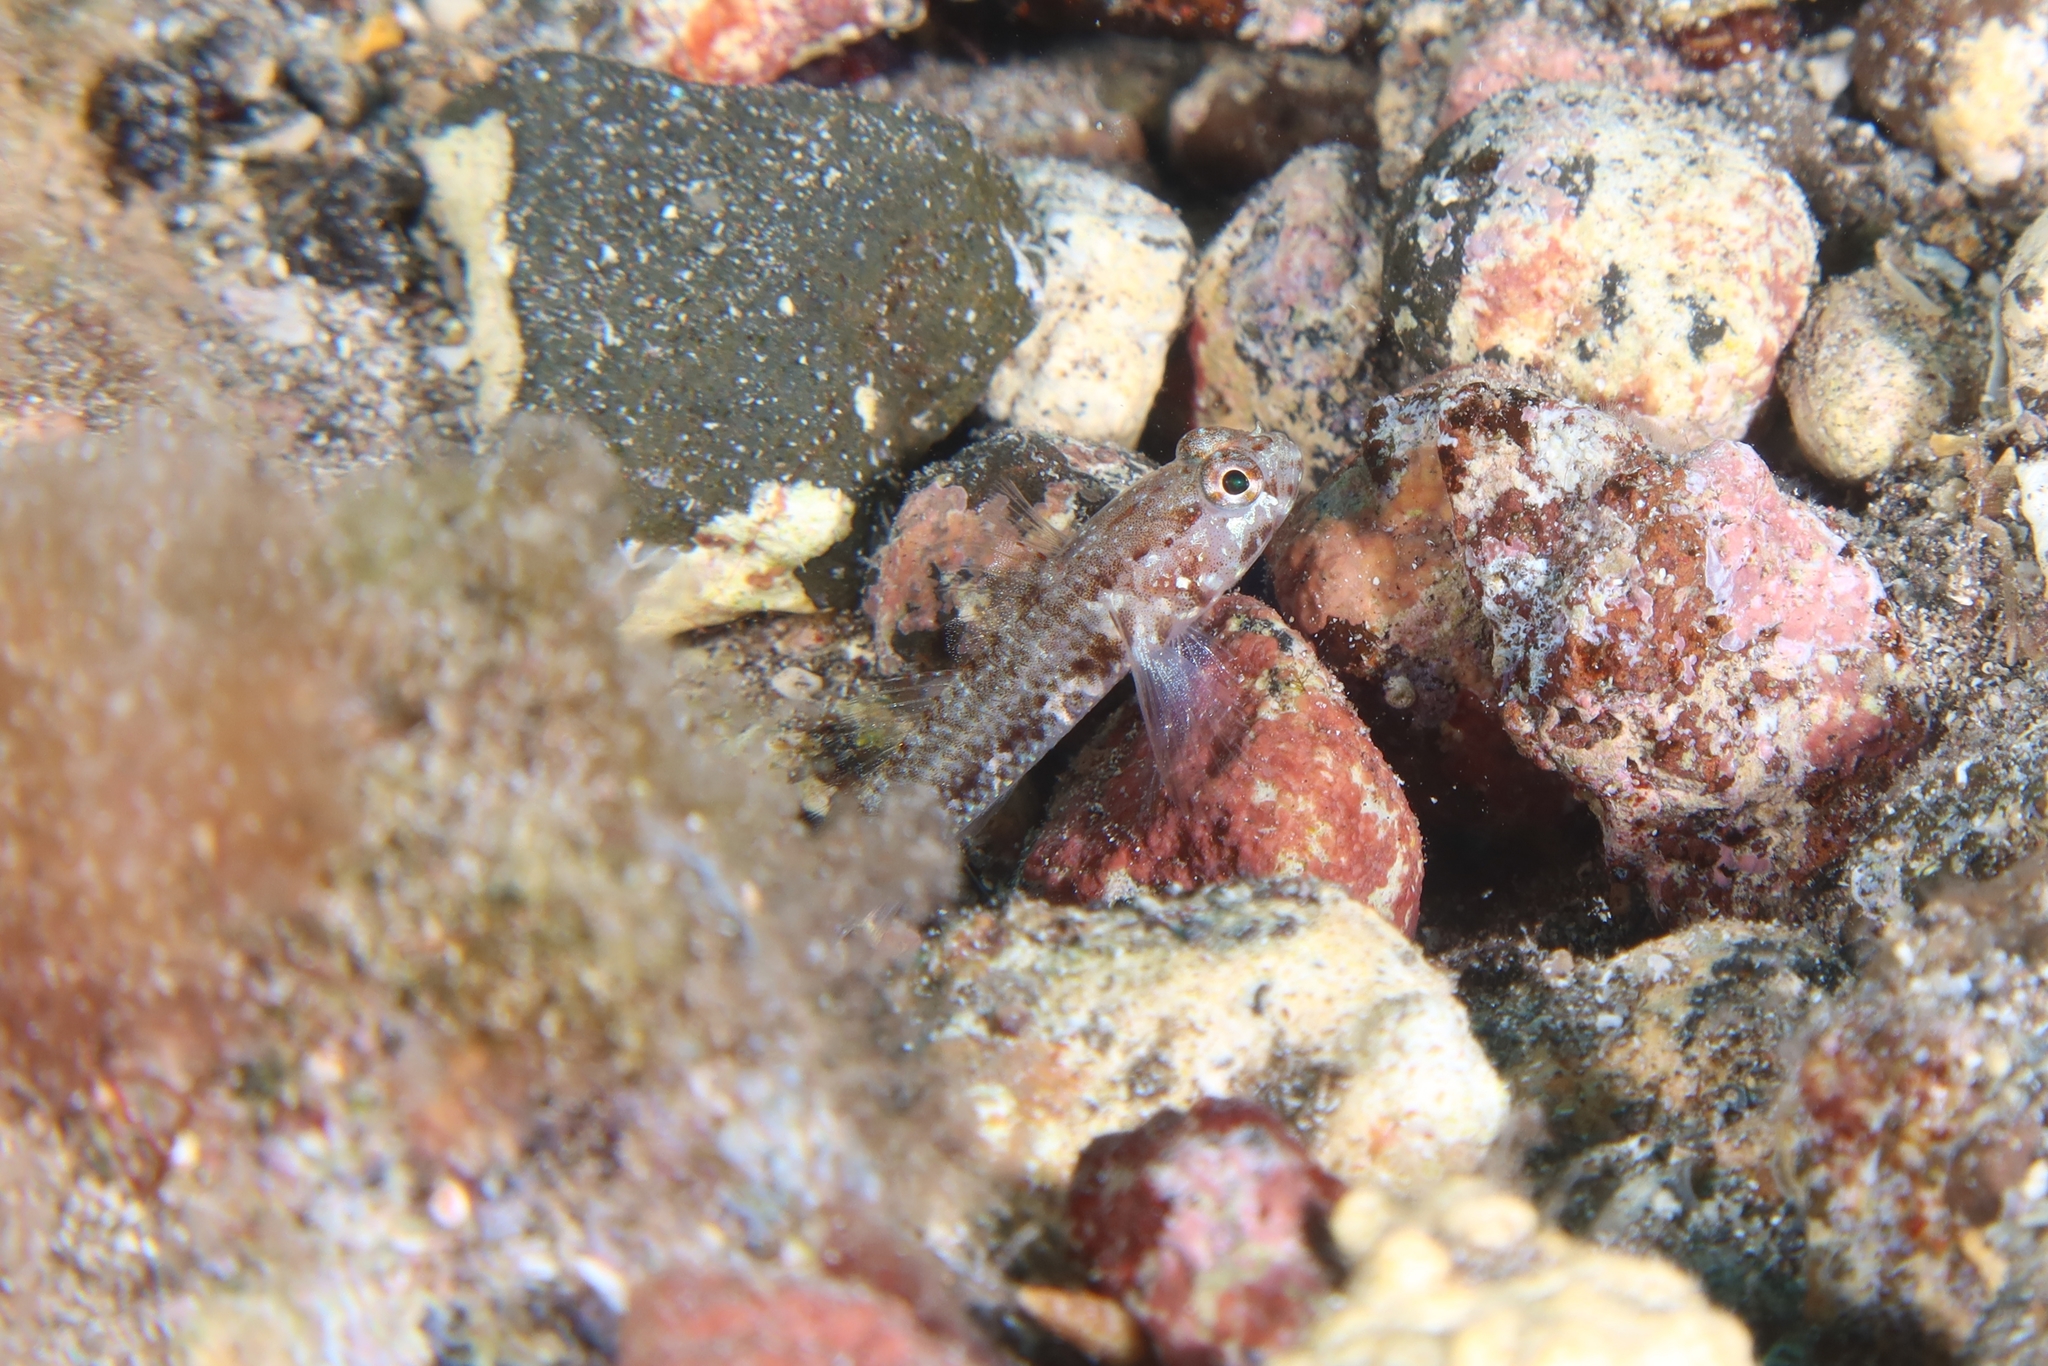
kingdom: Animalia
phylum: Chordata
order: Perciformes
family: Gobiidae
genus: Vanneaugobius
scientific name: Vanneaugobius canariensis
